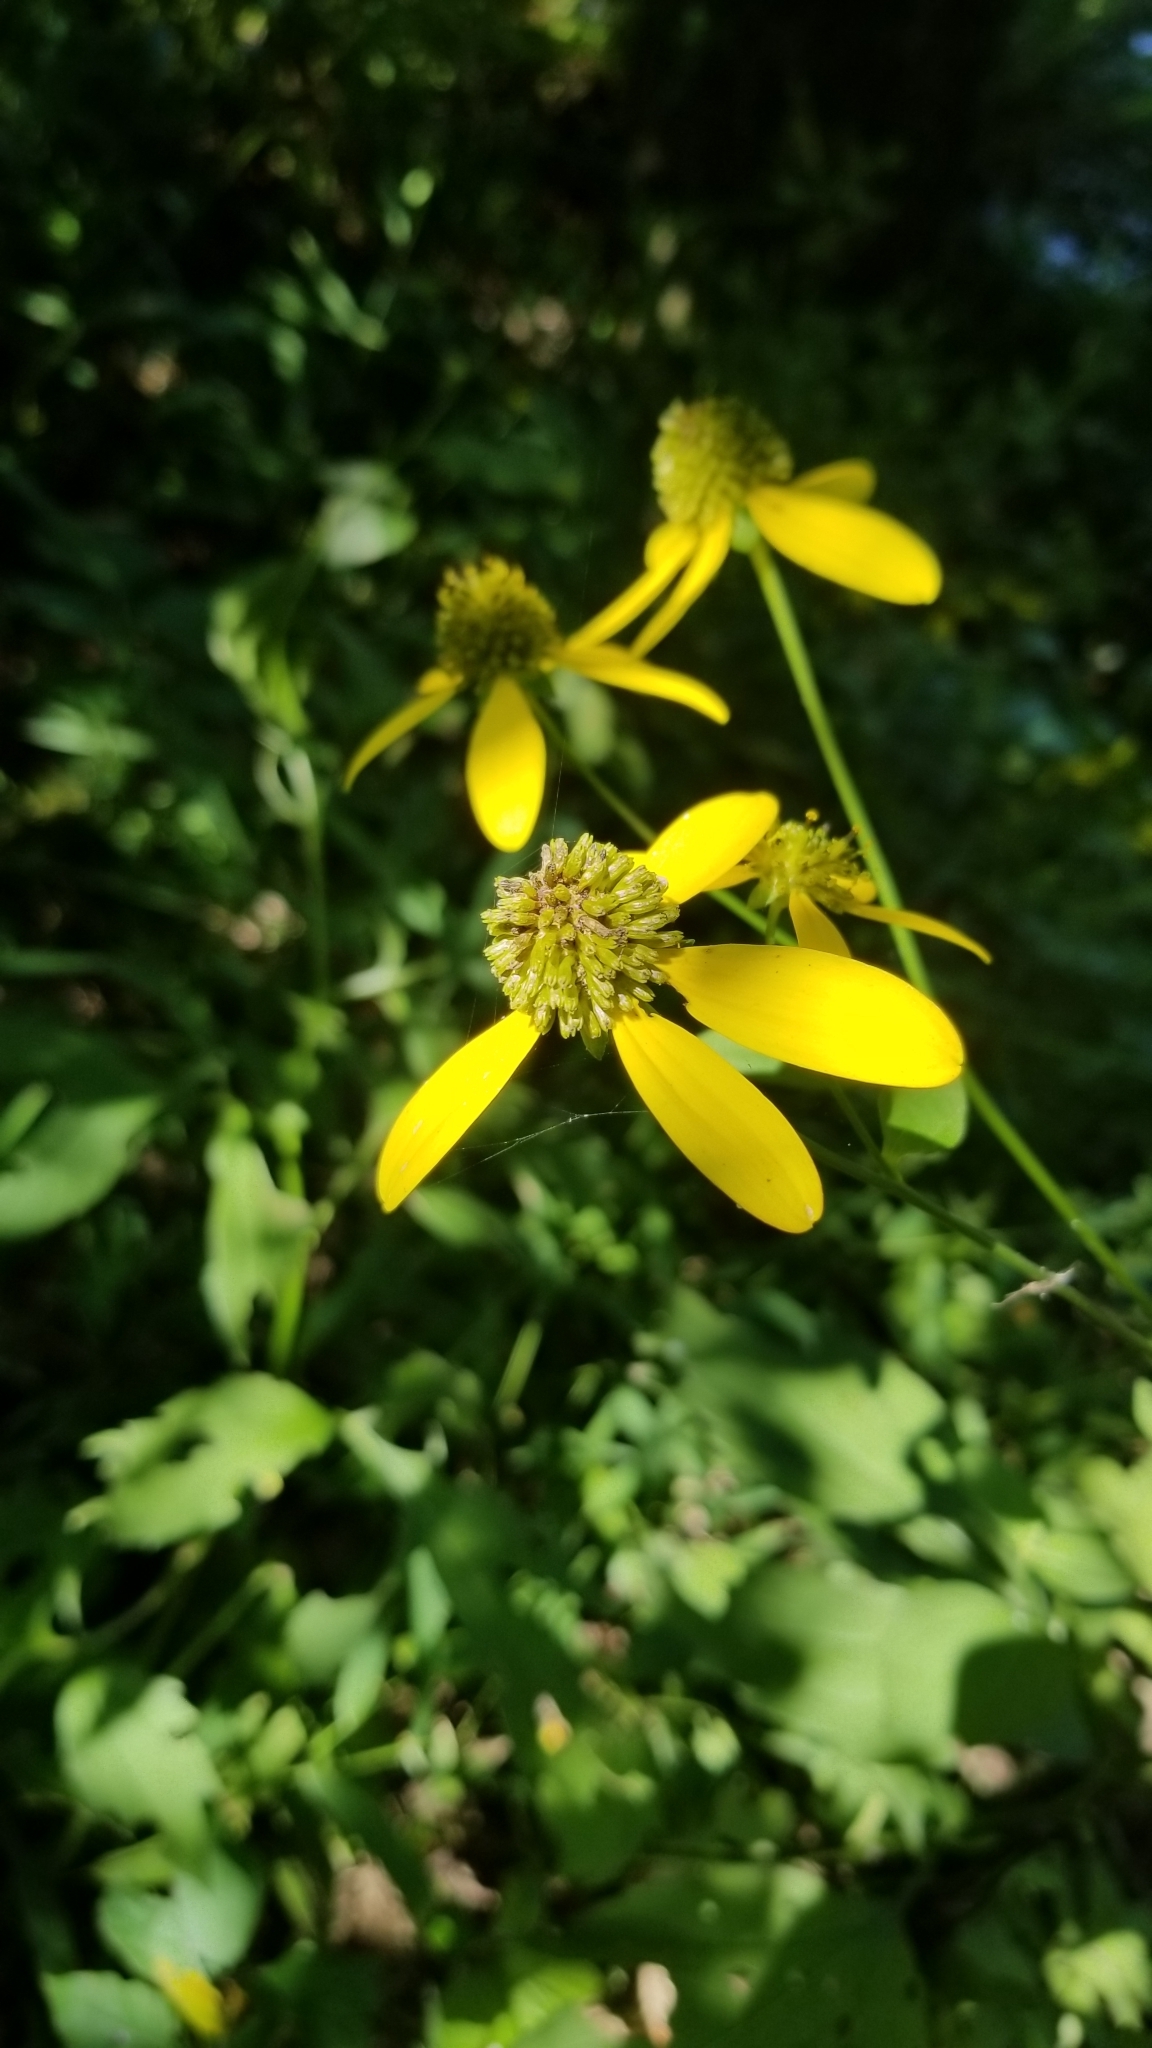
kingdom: Plantae
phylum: Tracheophyta
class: Magnoliopsida
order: Asterales
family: Asteraceae
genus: Rudbeckia
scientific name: Rudbeckia laciniata
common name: Coneflower
